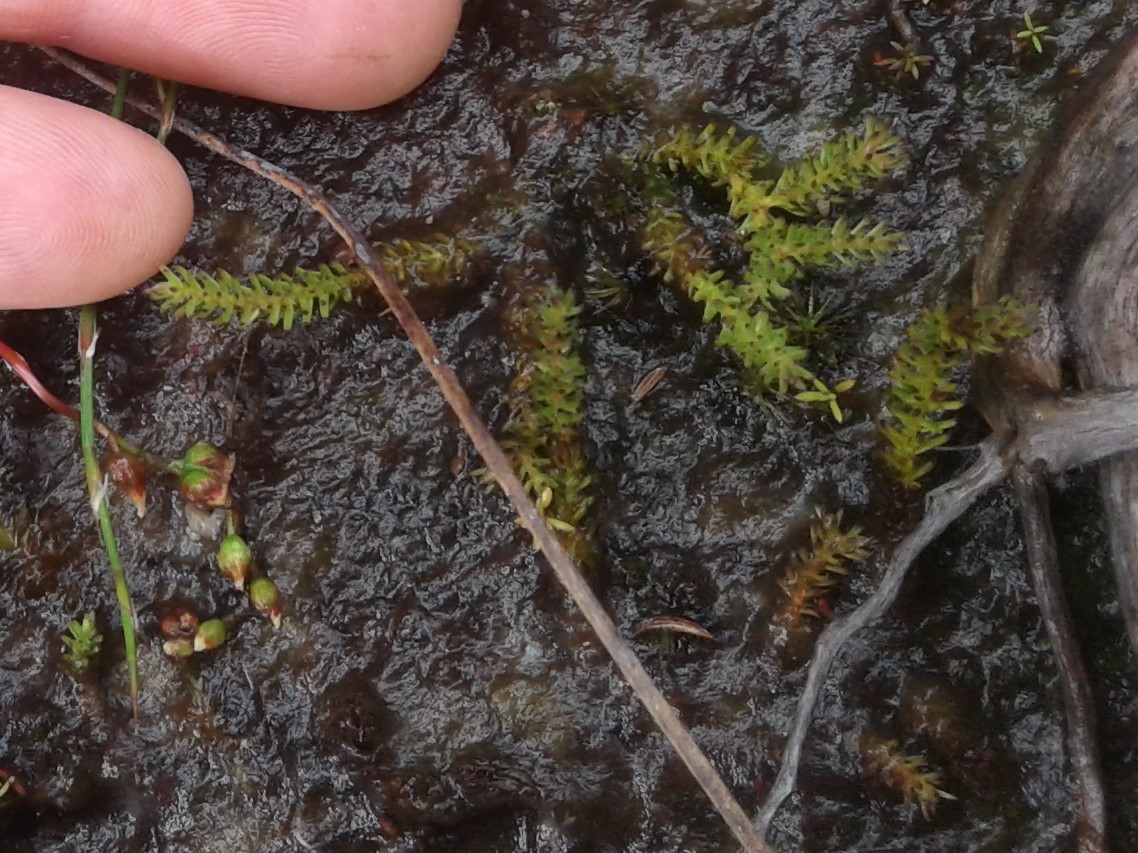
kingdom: Plantae
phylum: Tracheophyta
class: Lycopodiopsida
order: Lycopodiales
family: Lycopodiaceae
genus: Lateristachys
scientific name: Lateristachys diffusa
